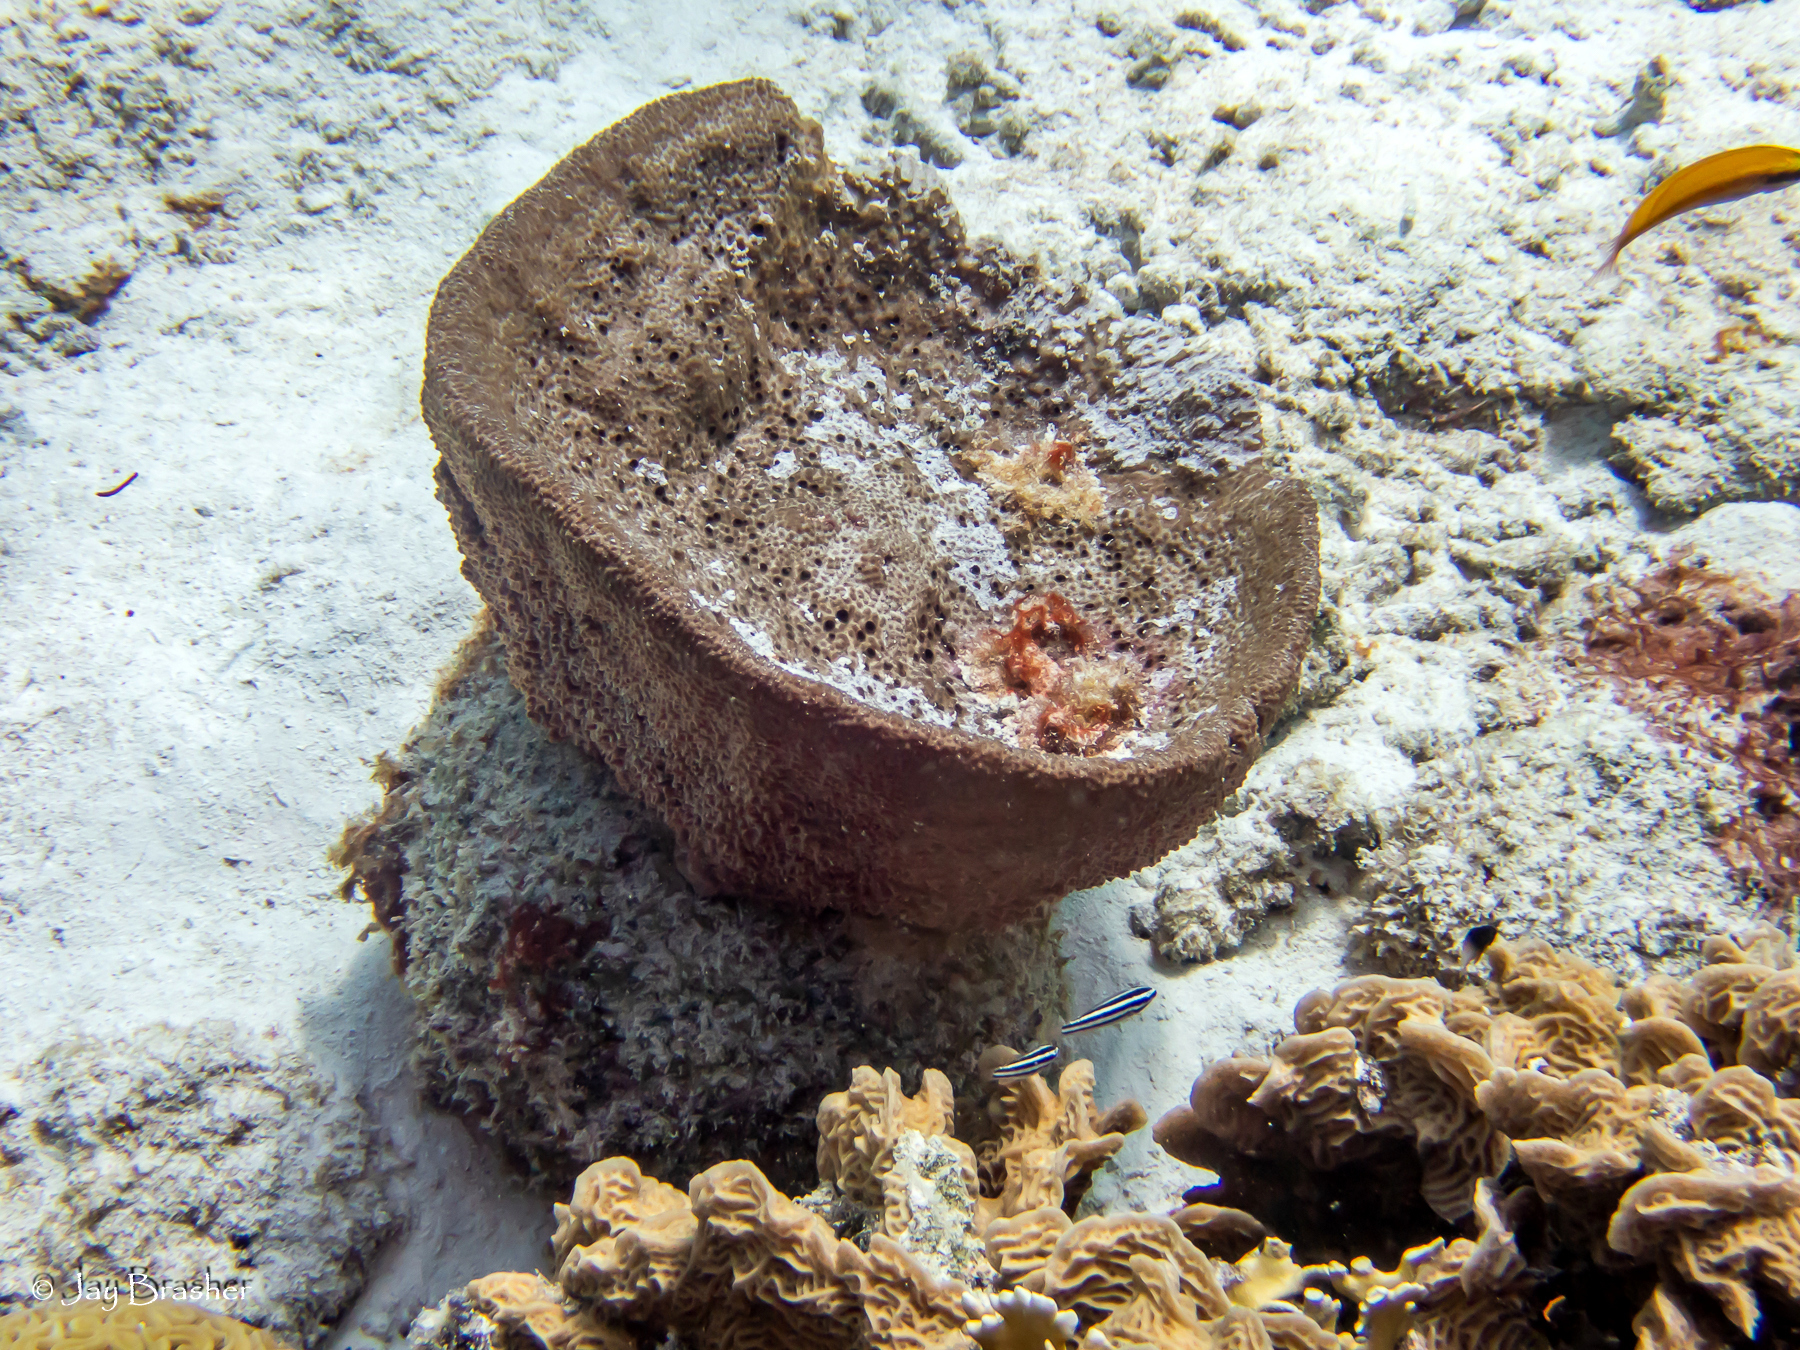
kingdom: Animalia
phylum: Porifera
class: Demospongiae
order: Dictyoceratida
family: Irciniidae
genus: Ircinia
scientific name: Ircinia campana
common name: Vase sponge
